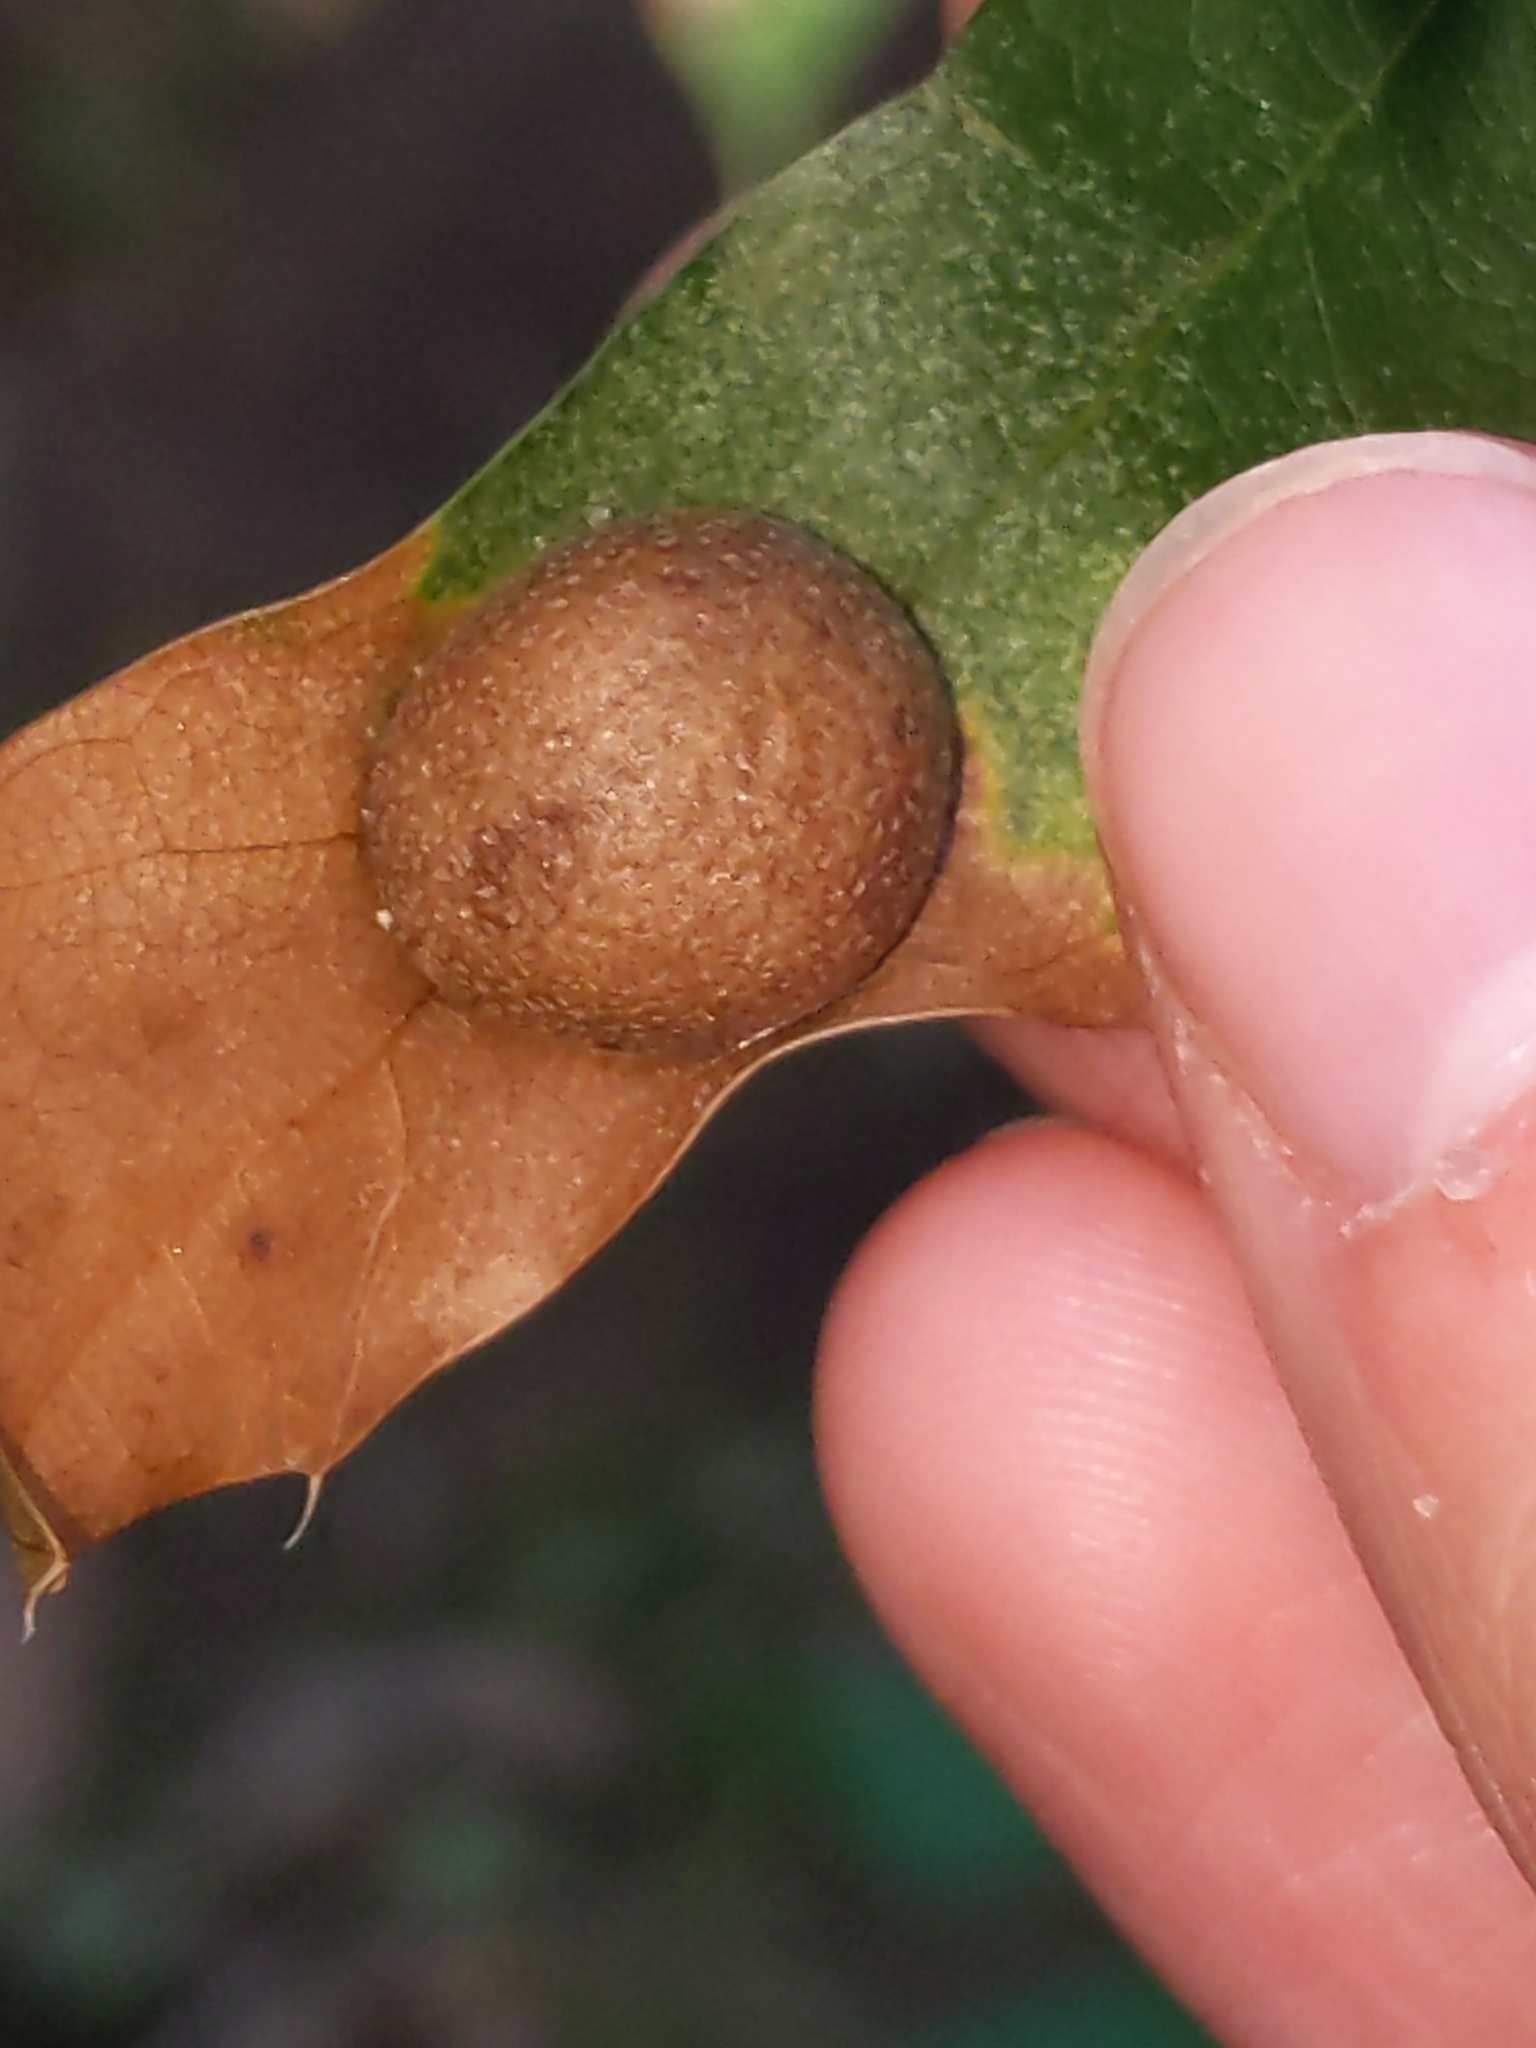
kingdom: Animalia
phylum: Arthropoda
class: Insecta
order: Diptera
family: Cecidomyiidae
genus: Polystepha
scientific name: Polystepha pilulae
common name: Oak leaf gall midge
